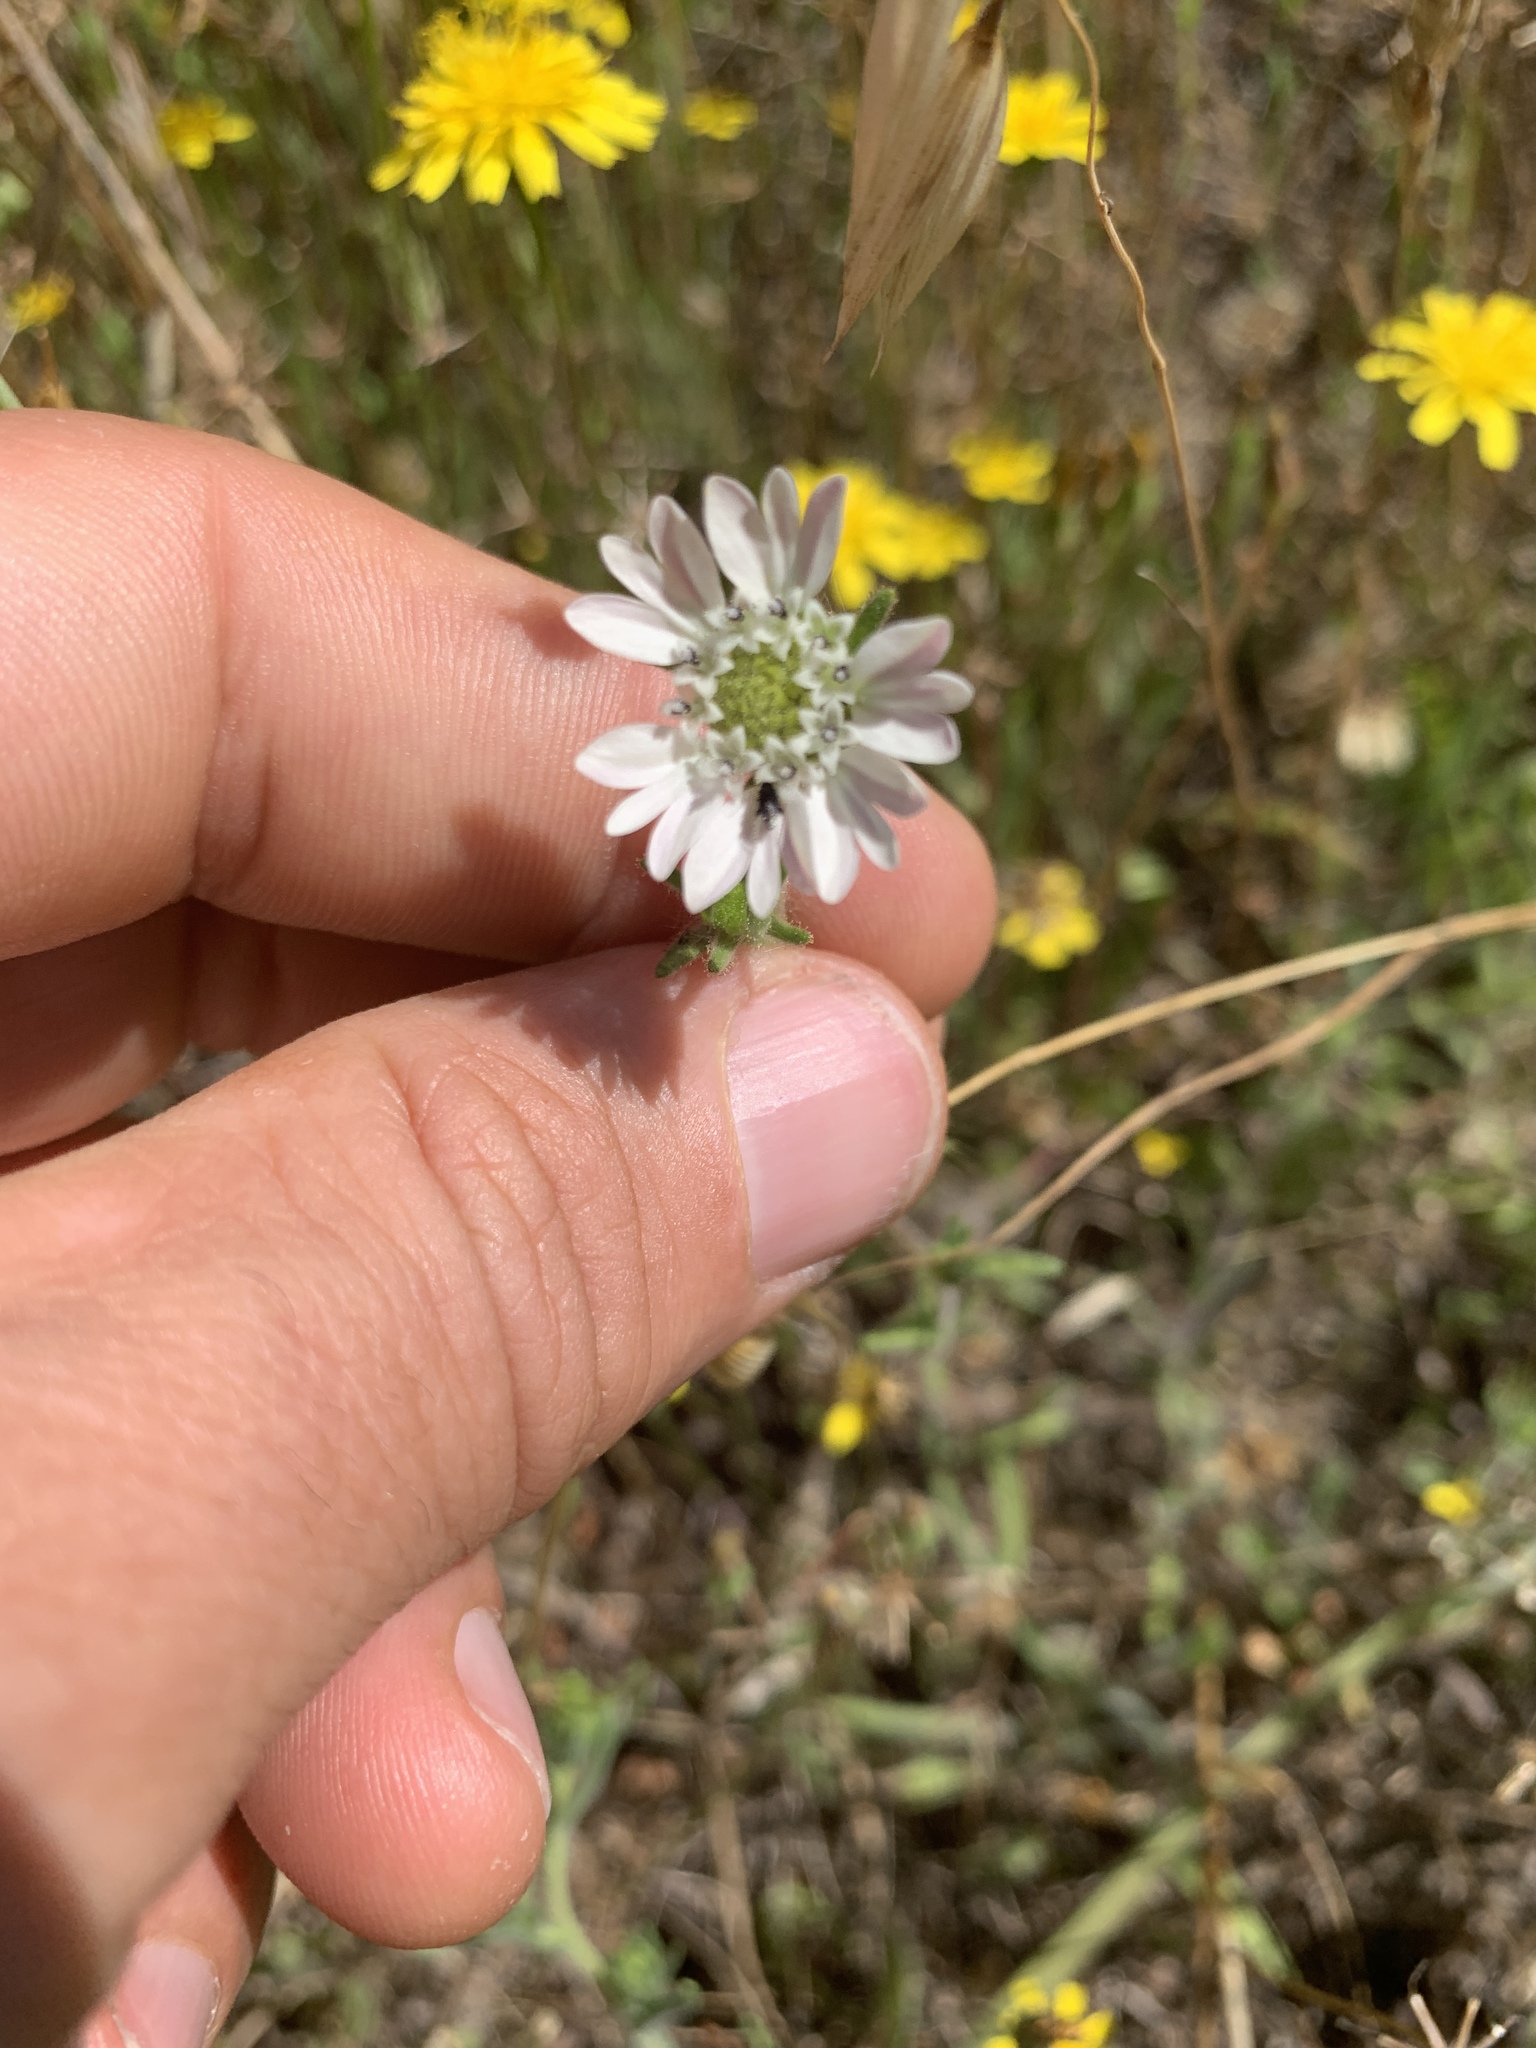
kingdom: Plantae
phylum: Tracheophyta
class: Magnoliopsida
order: Asterales
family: Asteraceae
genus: Hemizonia
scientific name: Hemizonia congesta
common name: Hayfield tarweed
